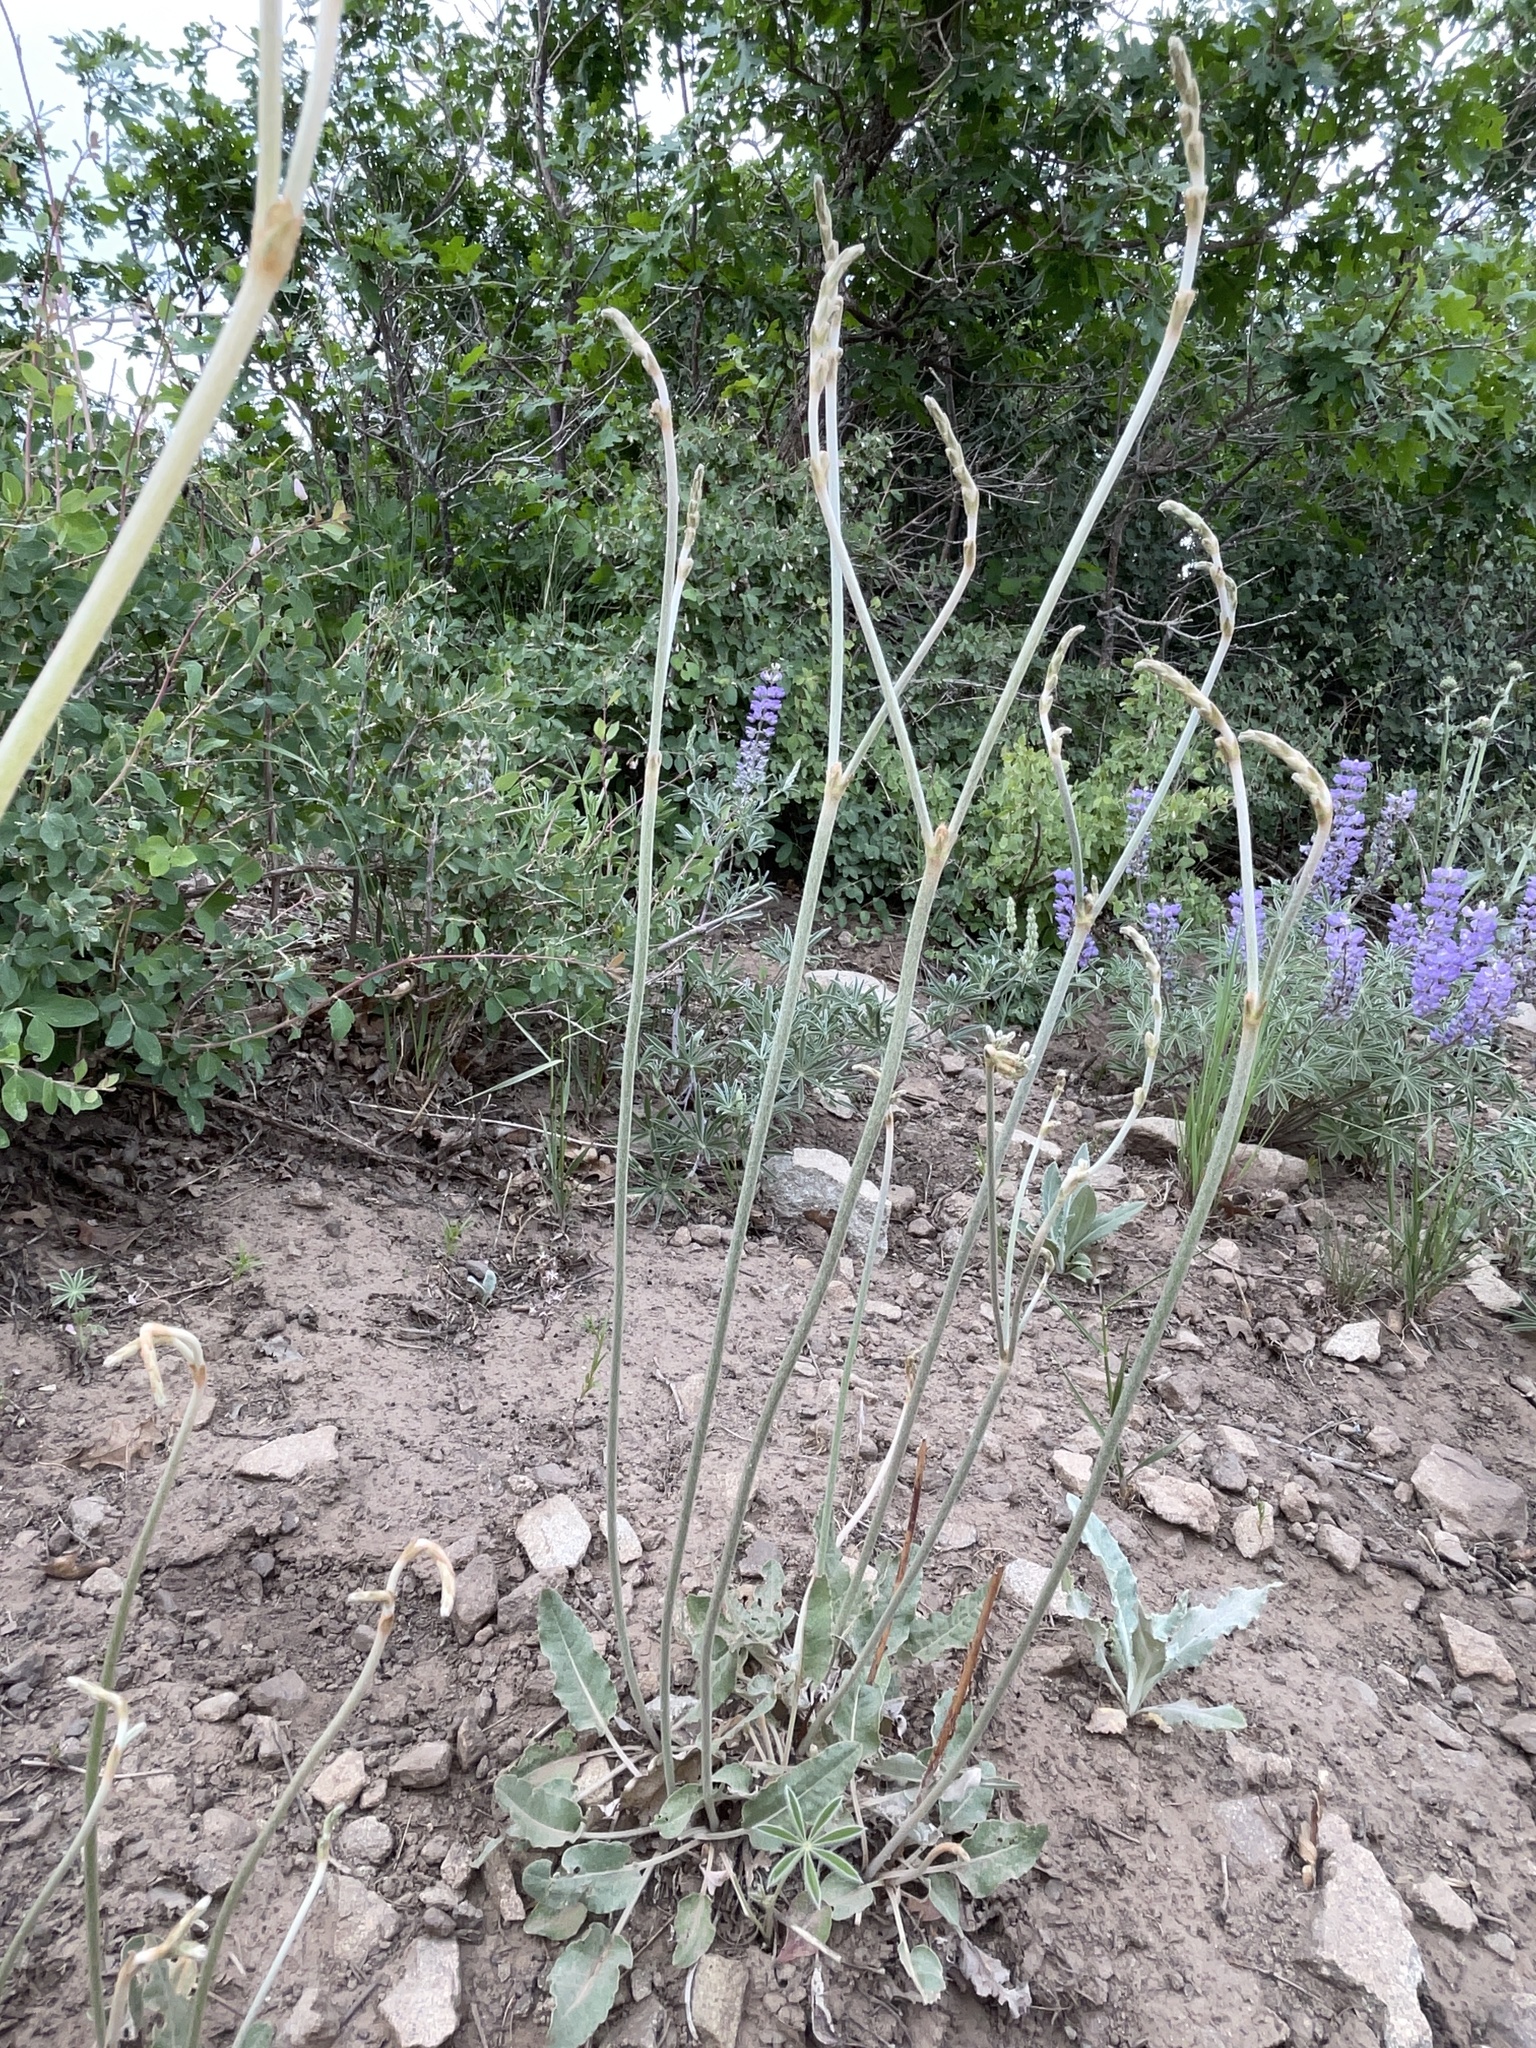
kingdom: Plantae
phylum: Tracheophyta
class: Magnoliopsida
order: Caryophyllales
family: Polygonaceae
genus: Eriogonum
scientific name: Eriogonum racemosum
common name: Redroot wild buckwheat
